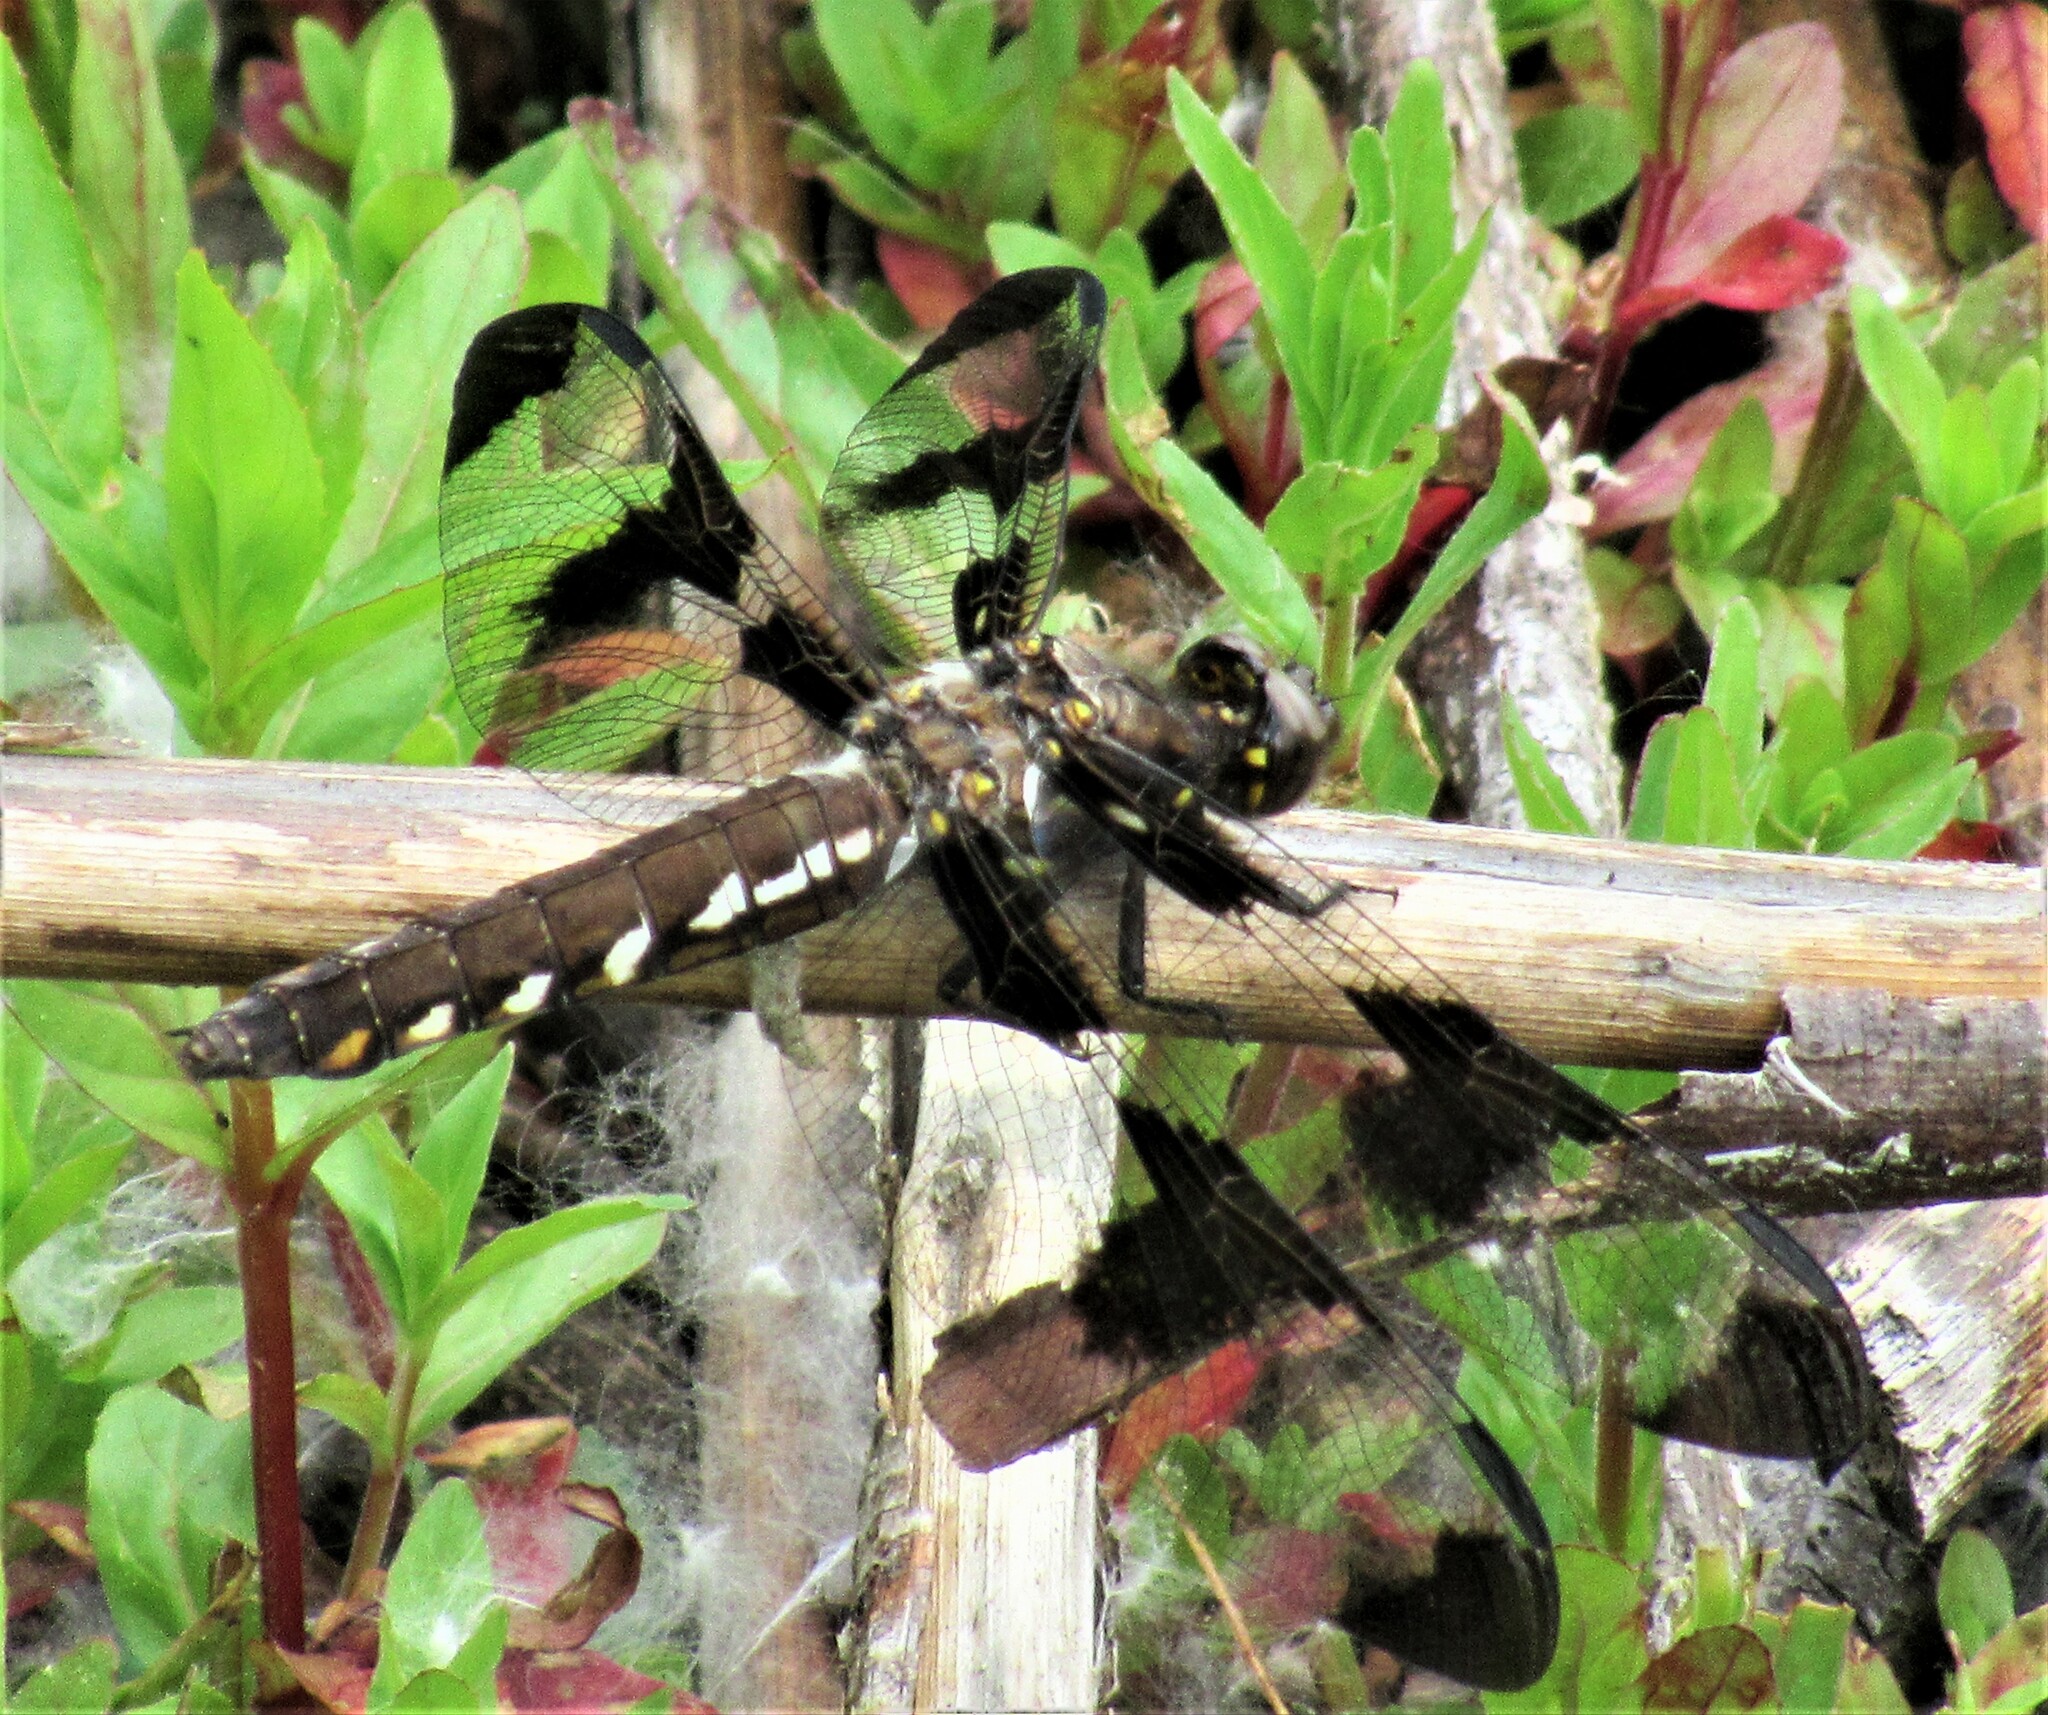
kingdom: Animalia
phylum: Arthropoda
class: Insecta
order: Odonata
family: Libellulidae
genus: Plathemis
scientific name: Plathemis lydia
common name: Common whitetail
